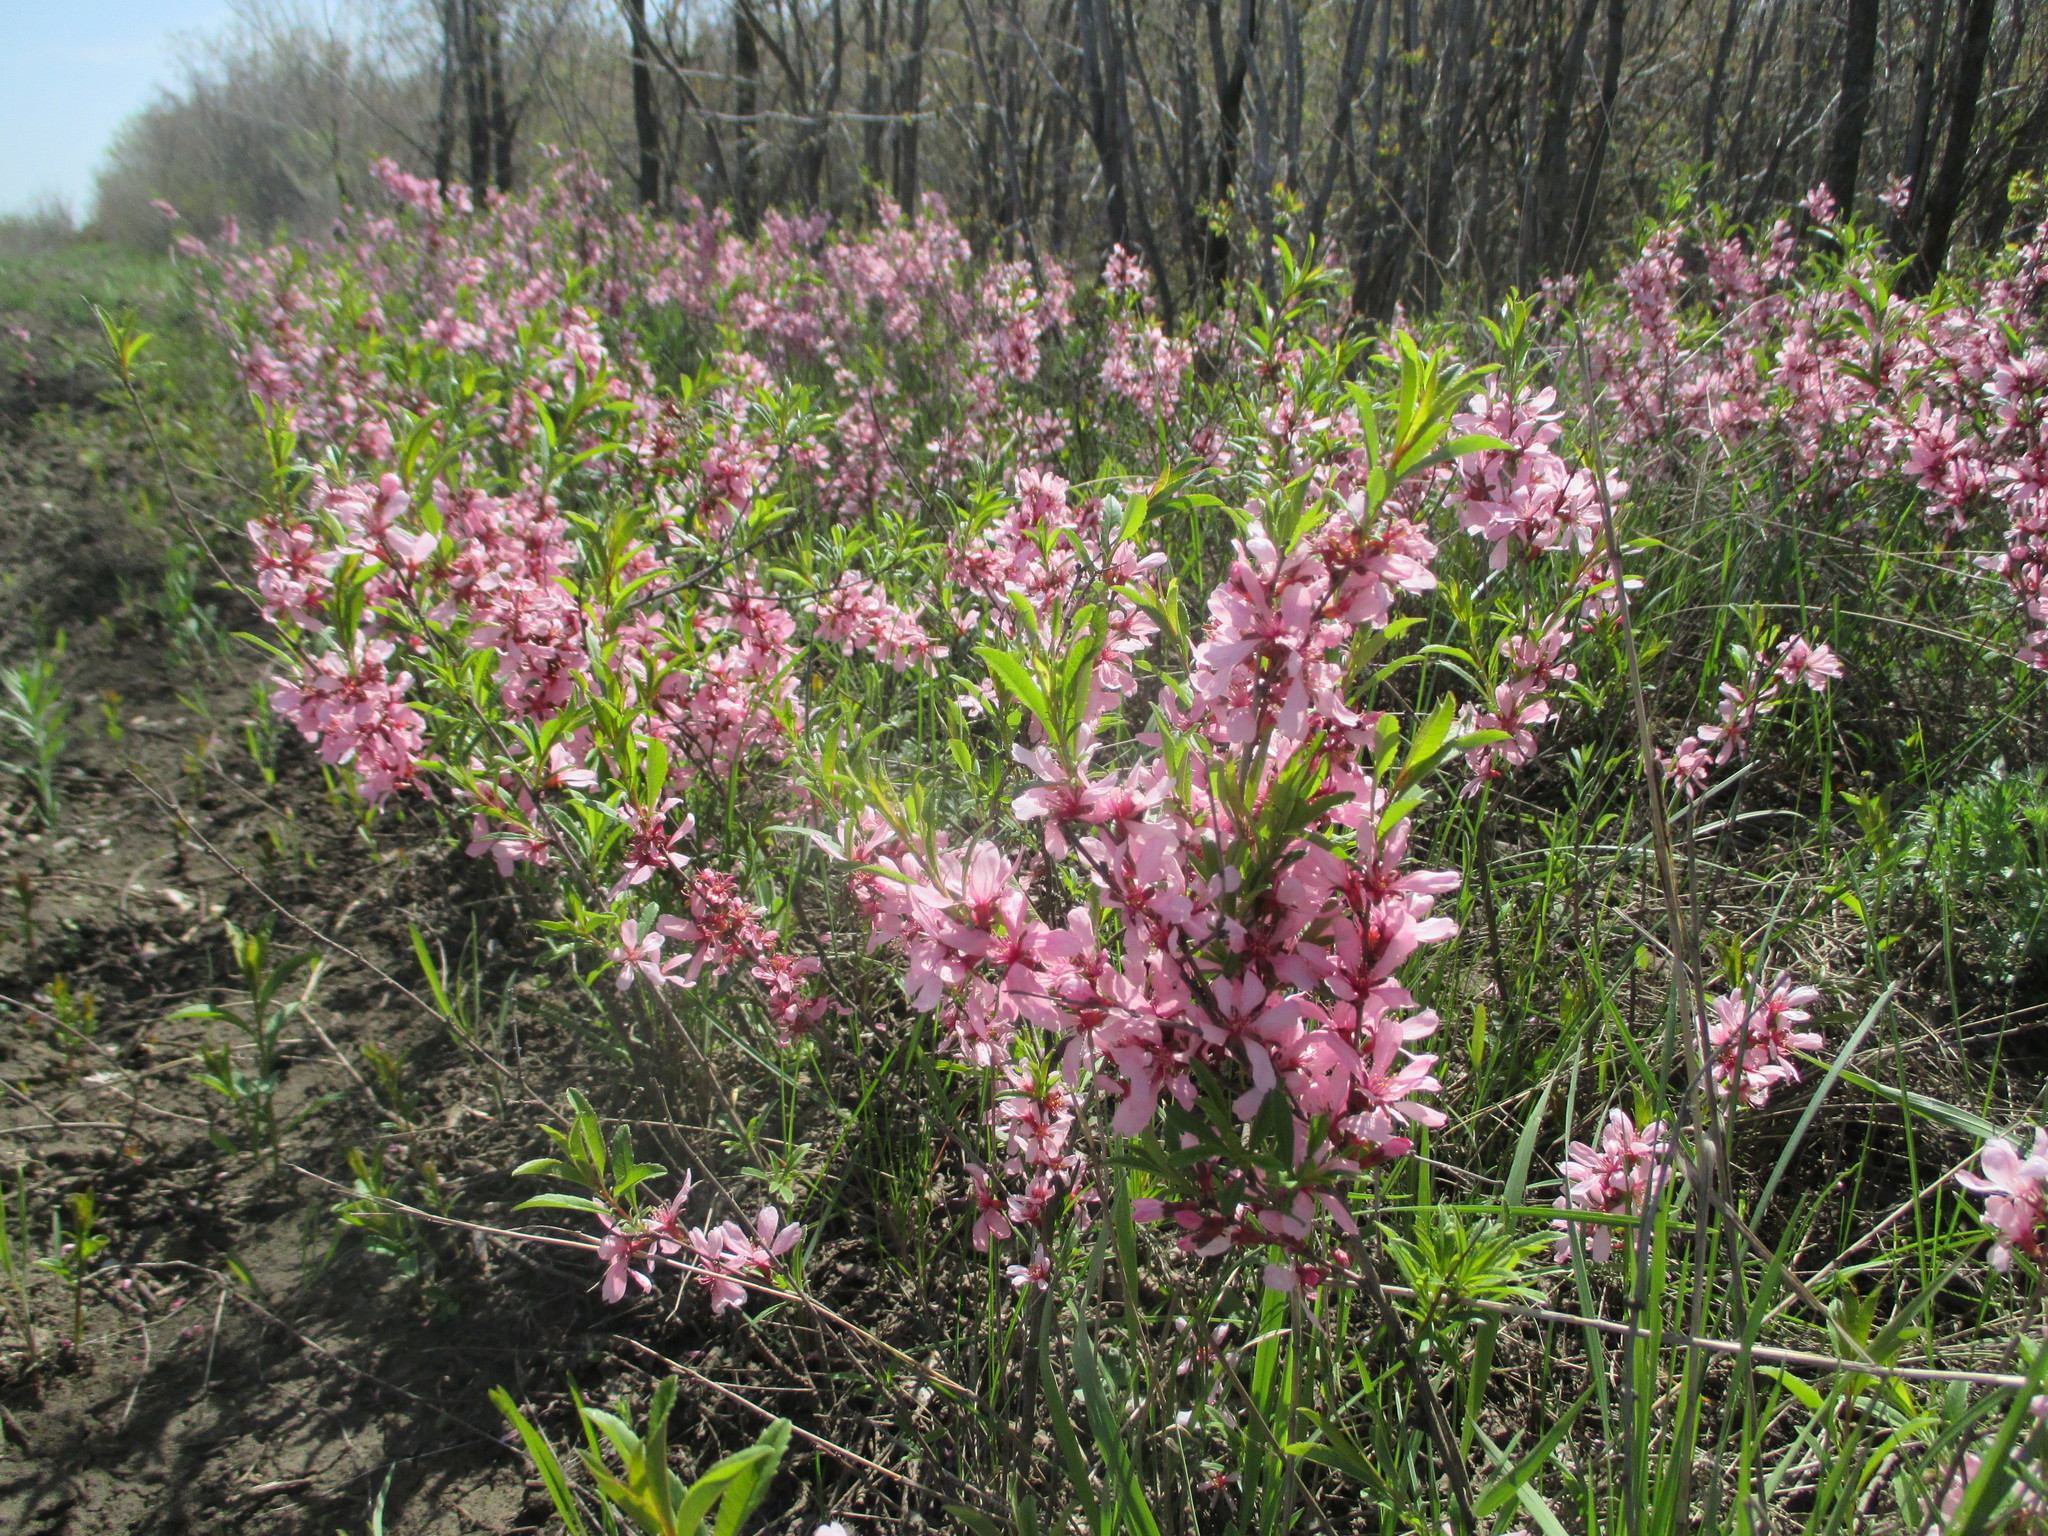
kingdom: Plantae
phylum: Tracheophyta
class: Magnoliopsida
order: Rosales
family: Rosaceae
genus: Prunus
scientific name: Prunus tenella
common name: Dwarf russian almond
